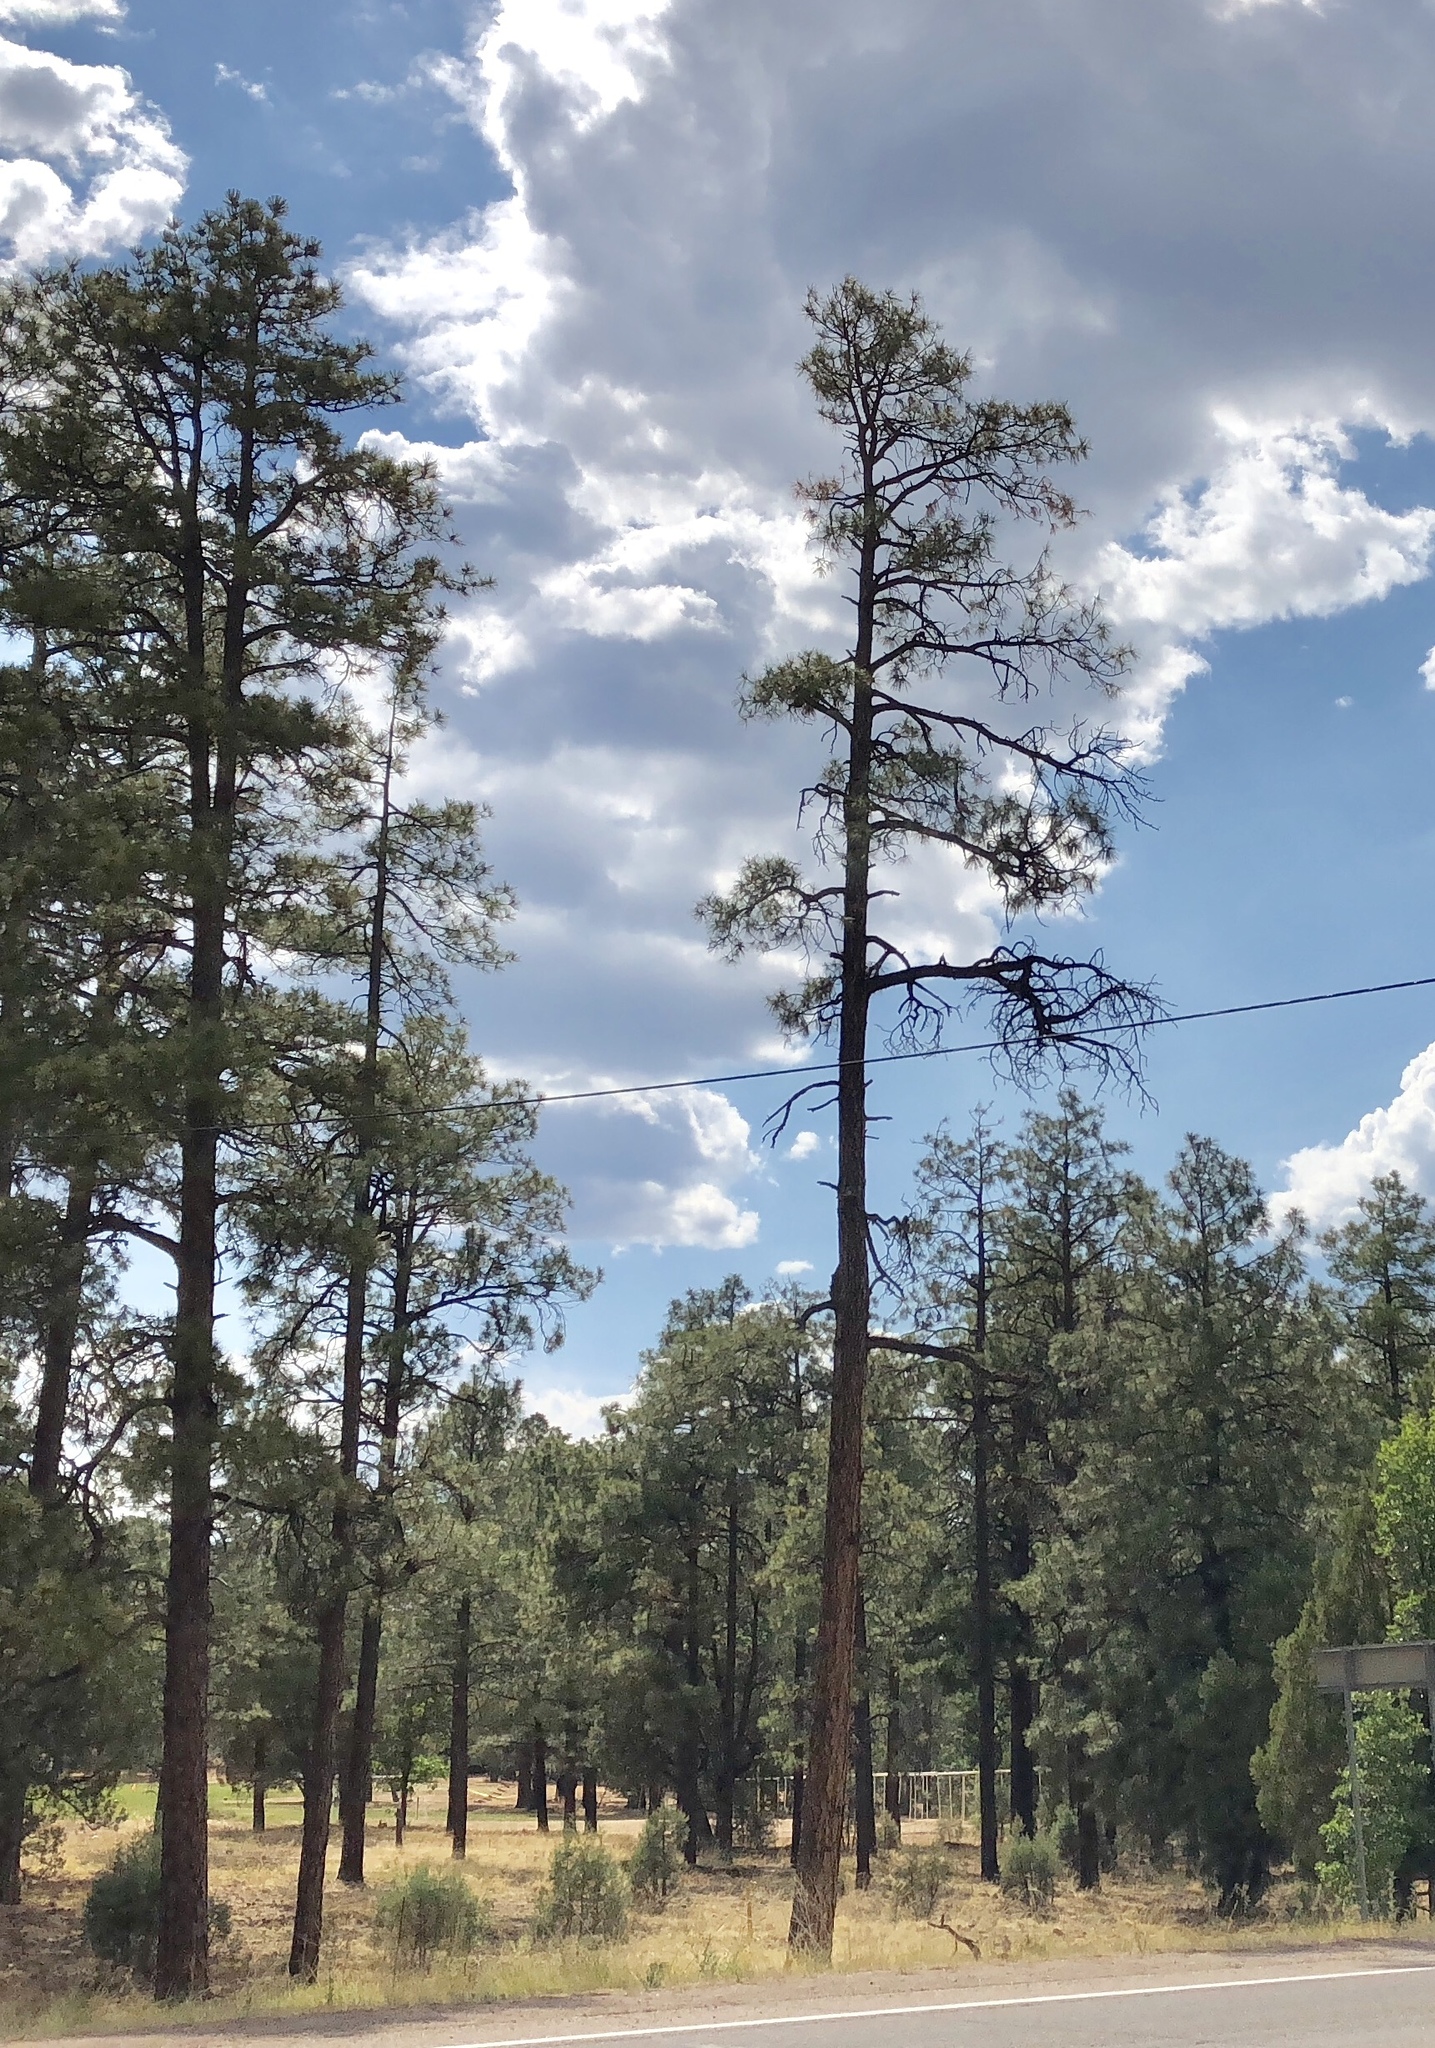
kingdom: Plantae
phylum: Tracheophyta
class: Pinopsida
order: Pinales
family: Pinaceae
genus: Pinus
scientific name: Pinus ponderosa
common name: Western yellow-pine
